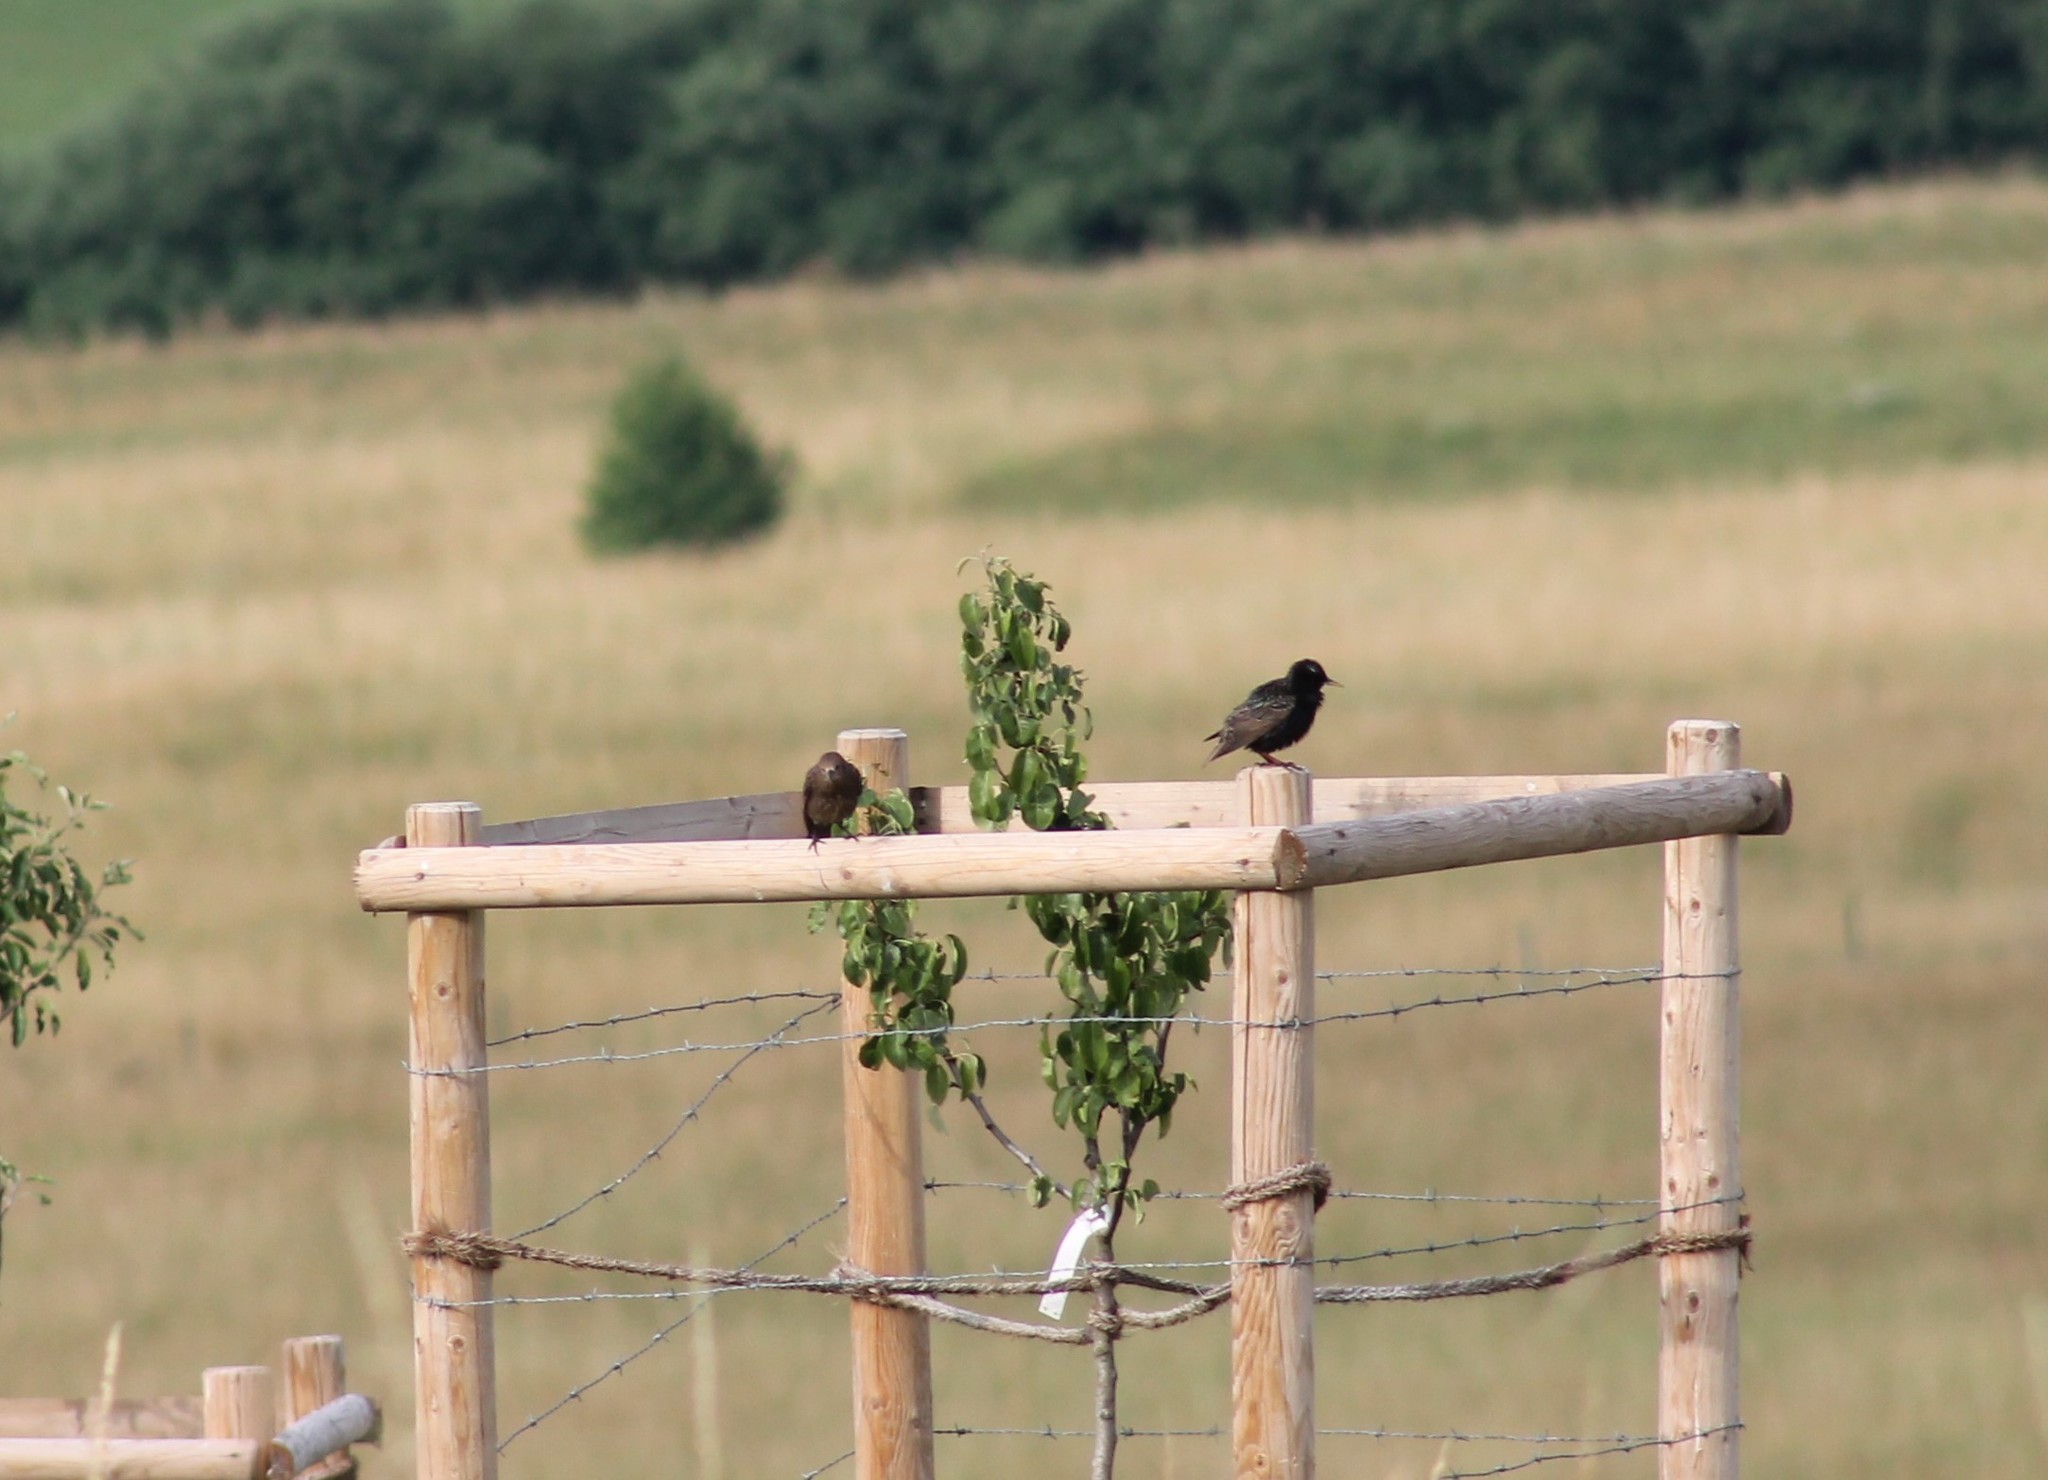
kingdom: Animalia
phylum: Chordata
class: Aves
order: Passeriformes
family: Sturnidae
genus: Sturnus
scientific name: Sturnus vulgaris
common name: Common starling
